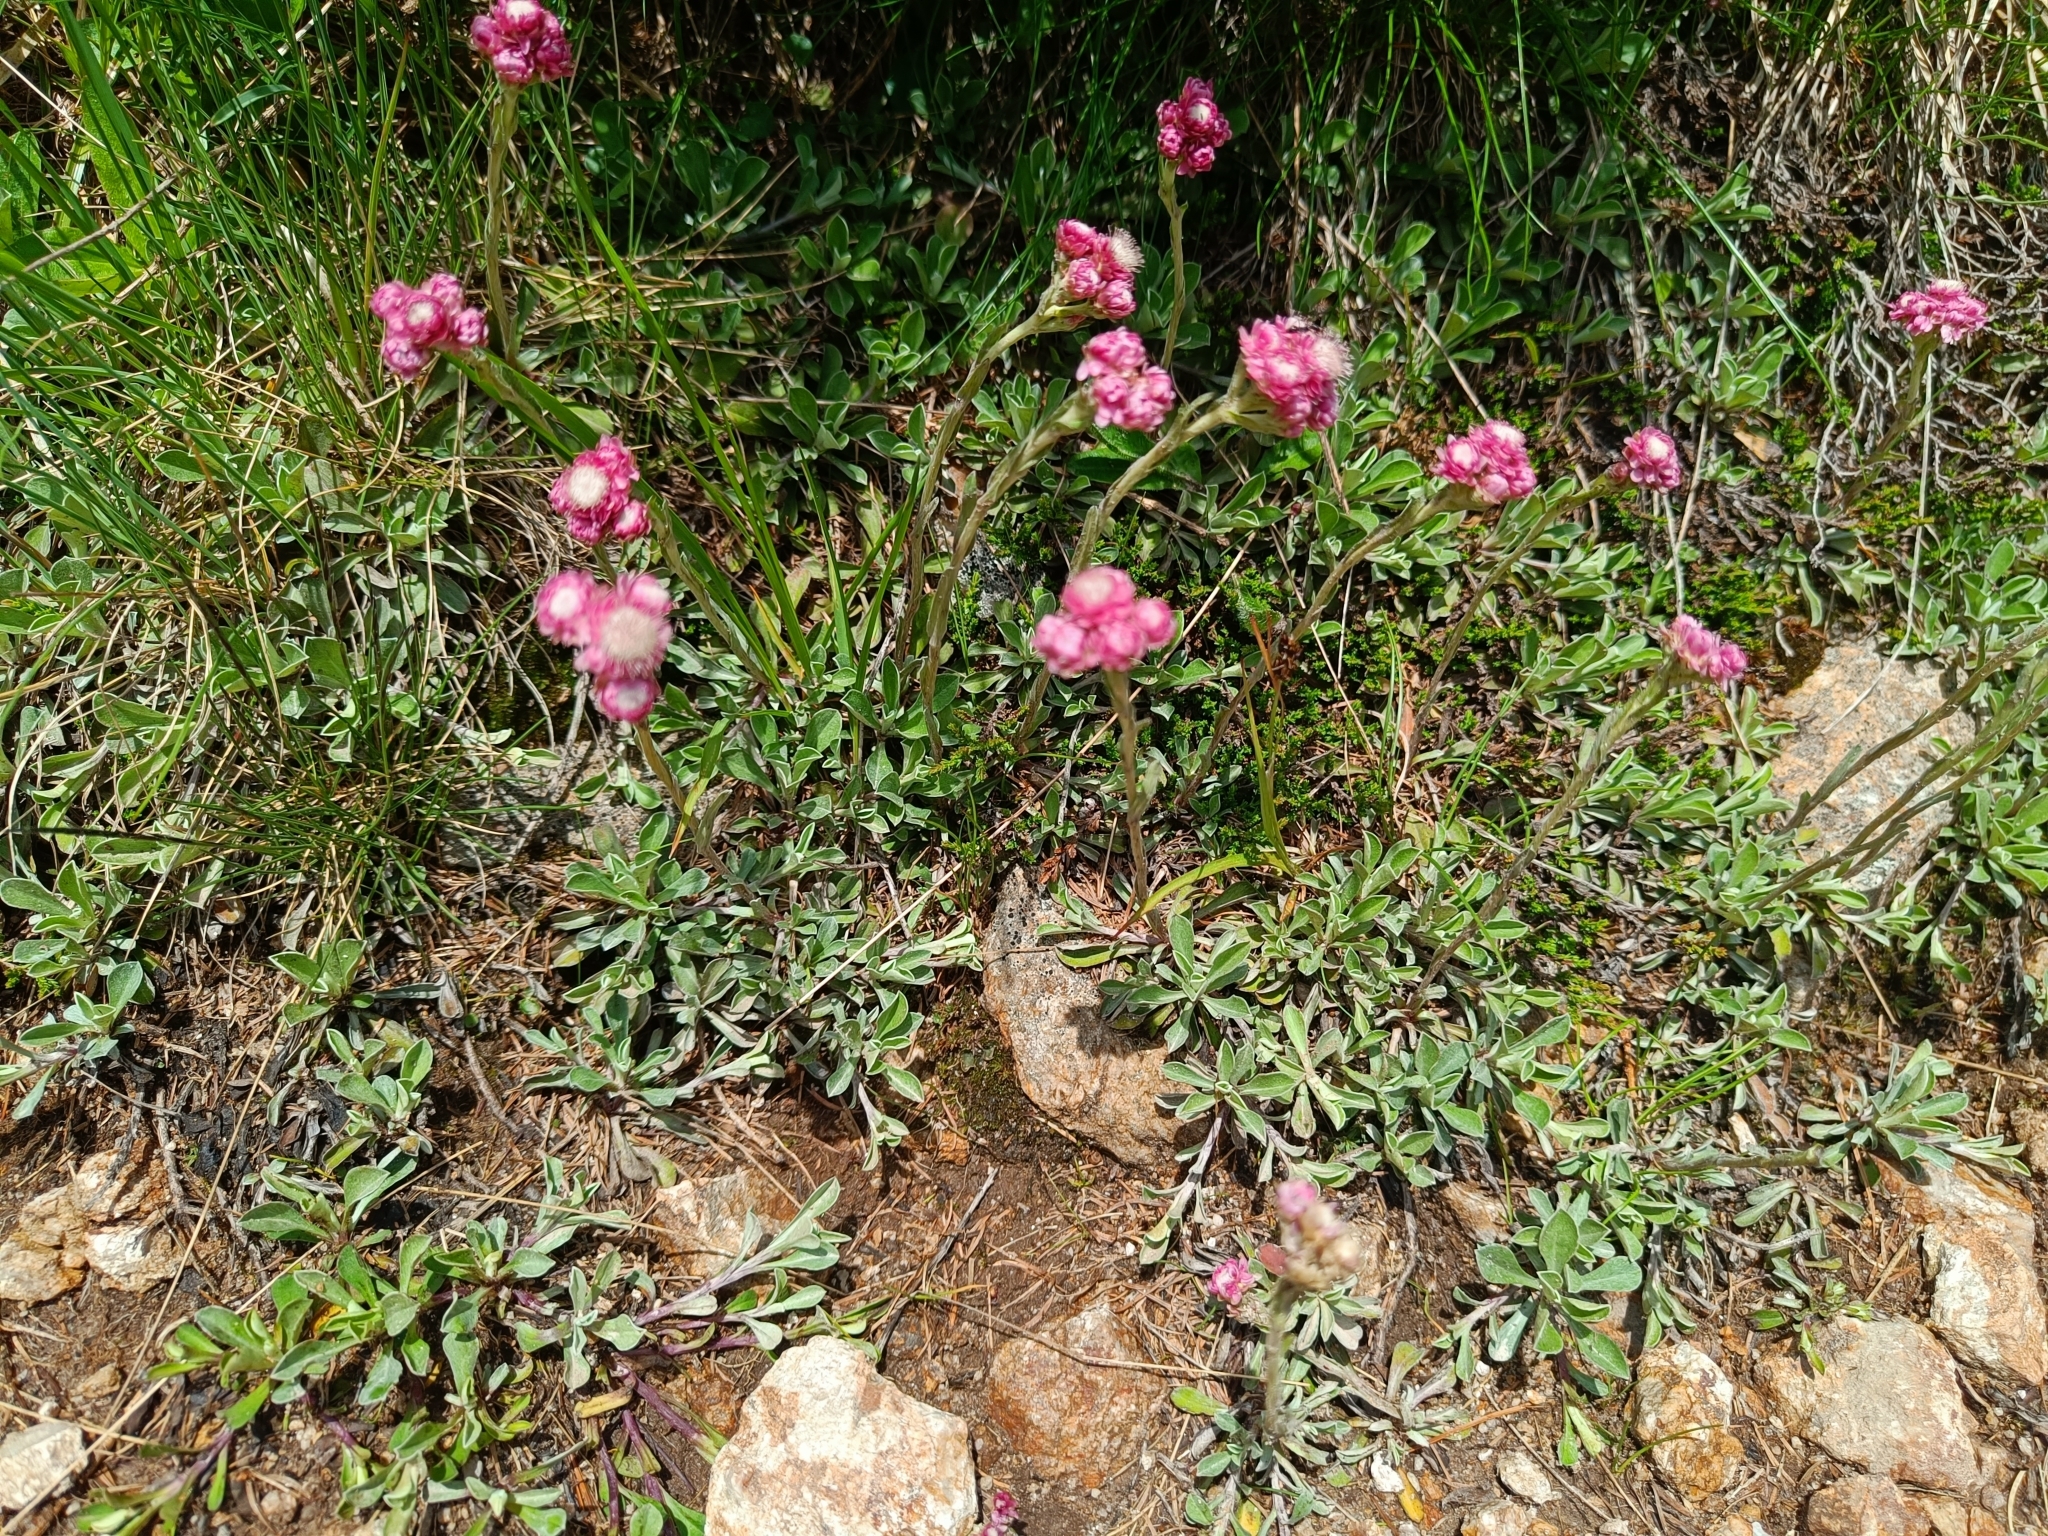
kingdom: Plantae
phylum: Tracheophyta
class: Magnoliopsida
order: Asterales
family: Asteraceae
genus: Antennaria
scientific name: Antennaria dioica
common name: Mountain everlasting
